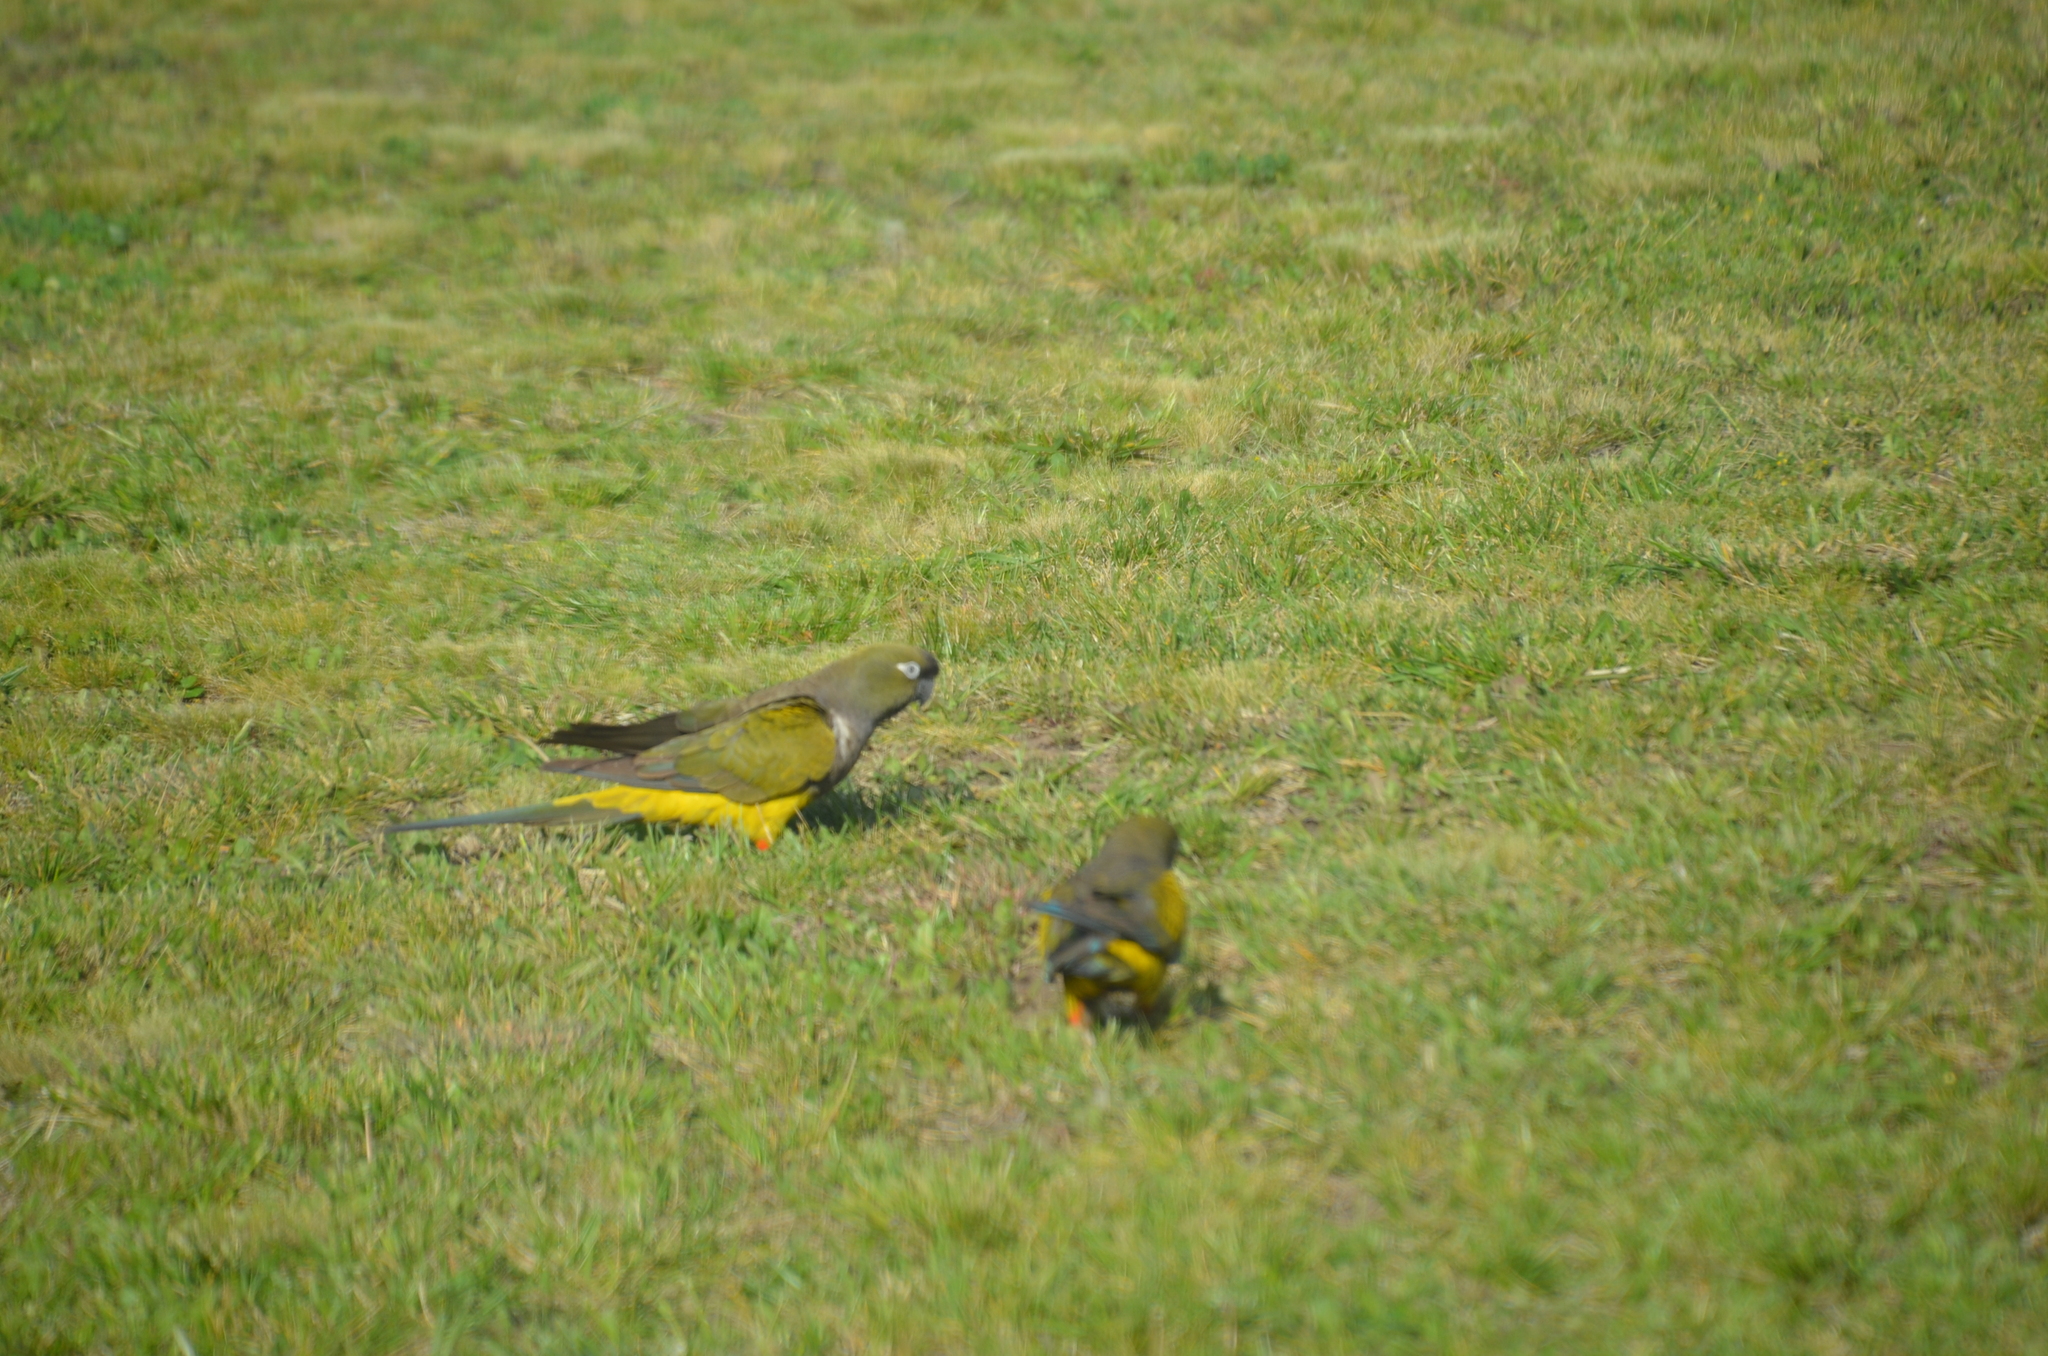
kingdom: Animalia
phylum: Chordata
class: Aves
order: Psittaciformes
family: Psittacidae
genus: Cyanoliseus
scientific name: Cyanoliseus patagonus
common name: Burrowing parrot
